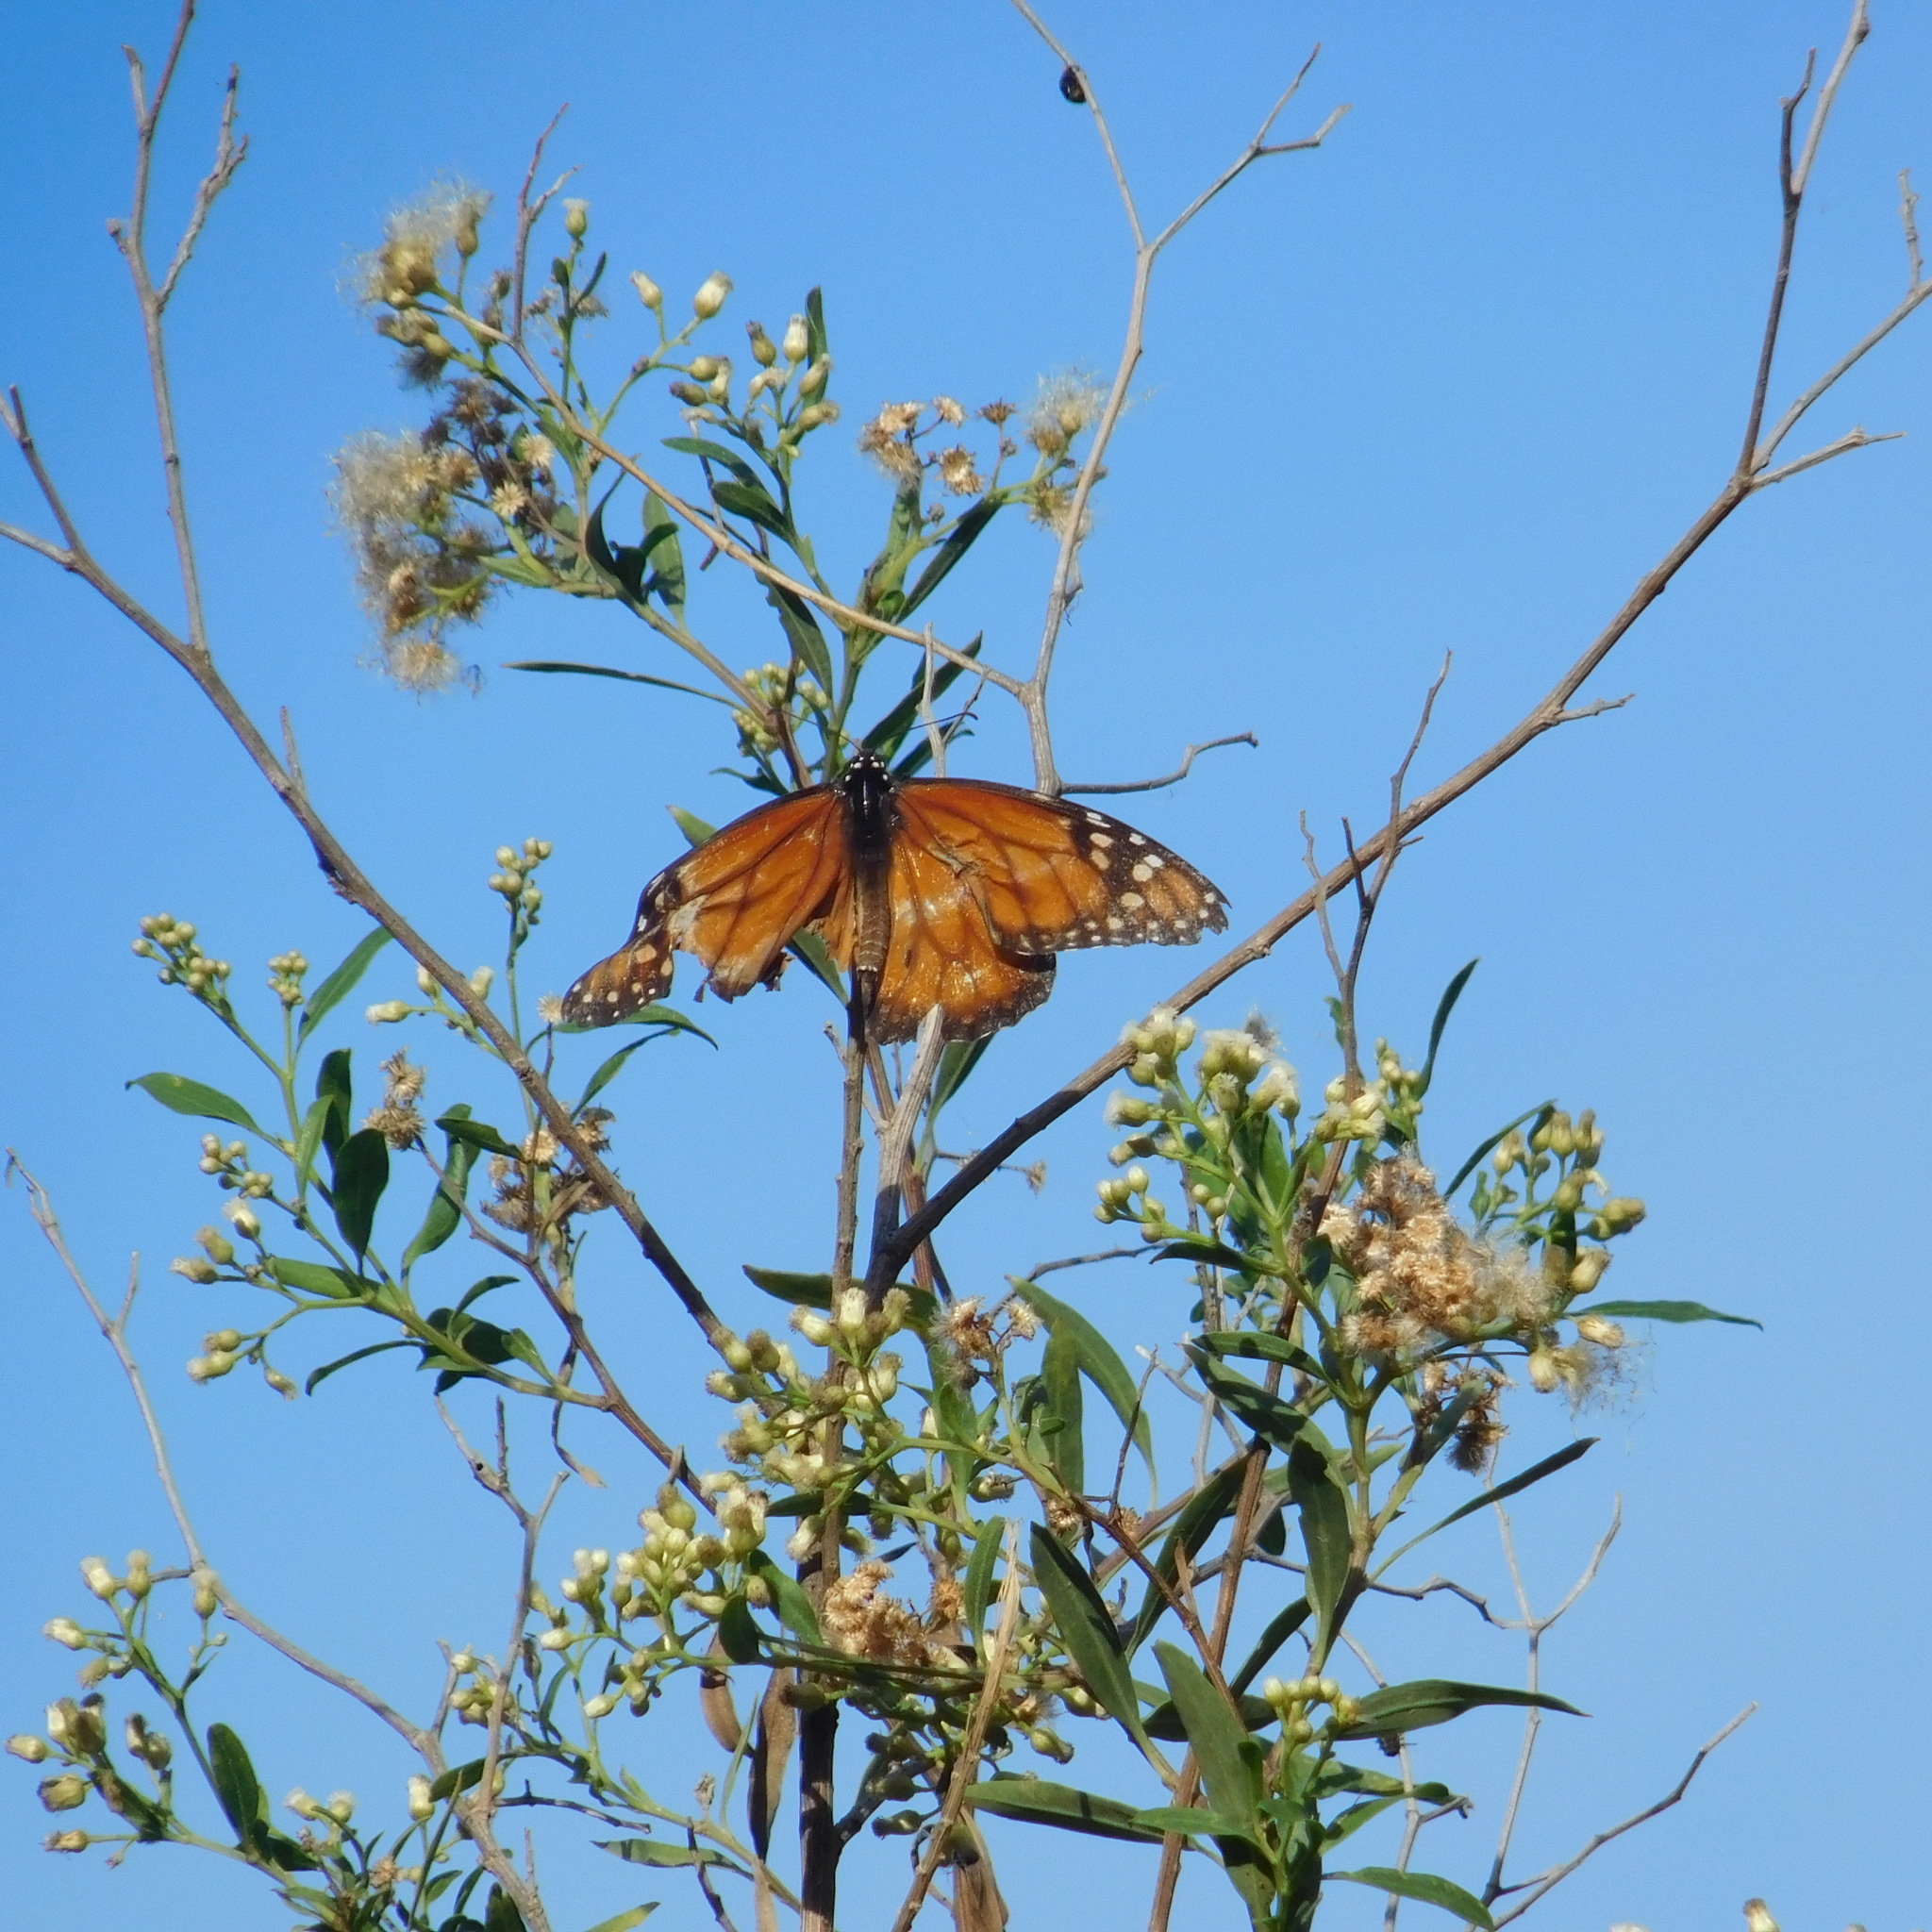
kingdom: Animalia
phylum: Arthropoda
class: Insecta
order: Lepidoptera
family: Nymphalidae
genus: Danaus
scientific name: Danaus erippus
